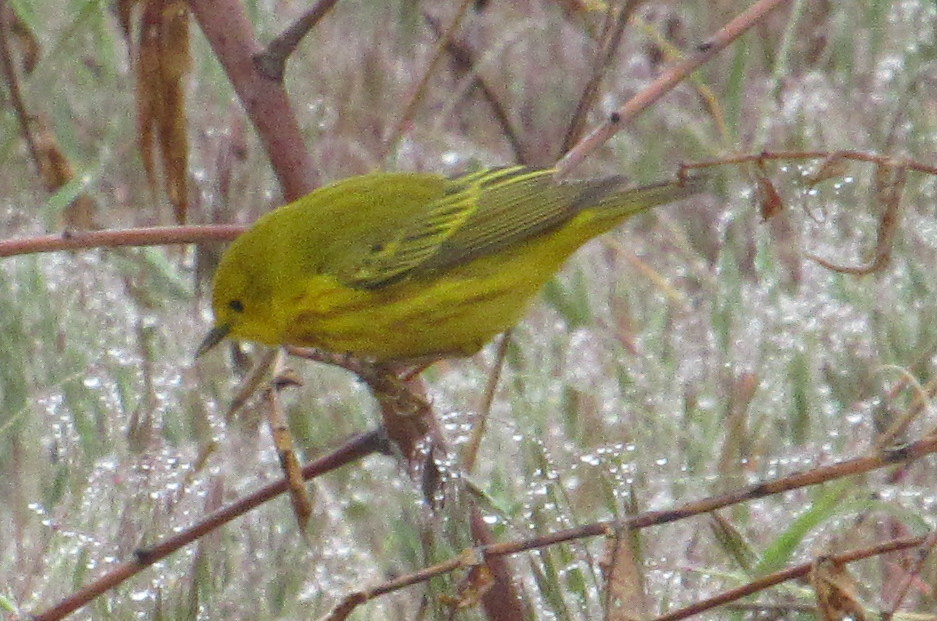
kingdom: Animalia
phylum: Chordata
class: Aves
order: Passeriformes
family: Parulidae
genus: Setophaga
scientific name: Setophaga petechia
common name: Yellow warbler
